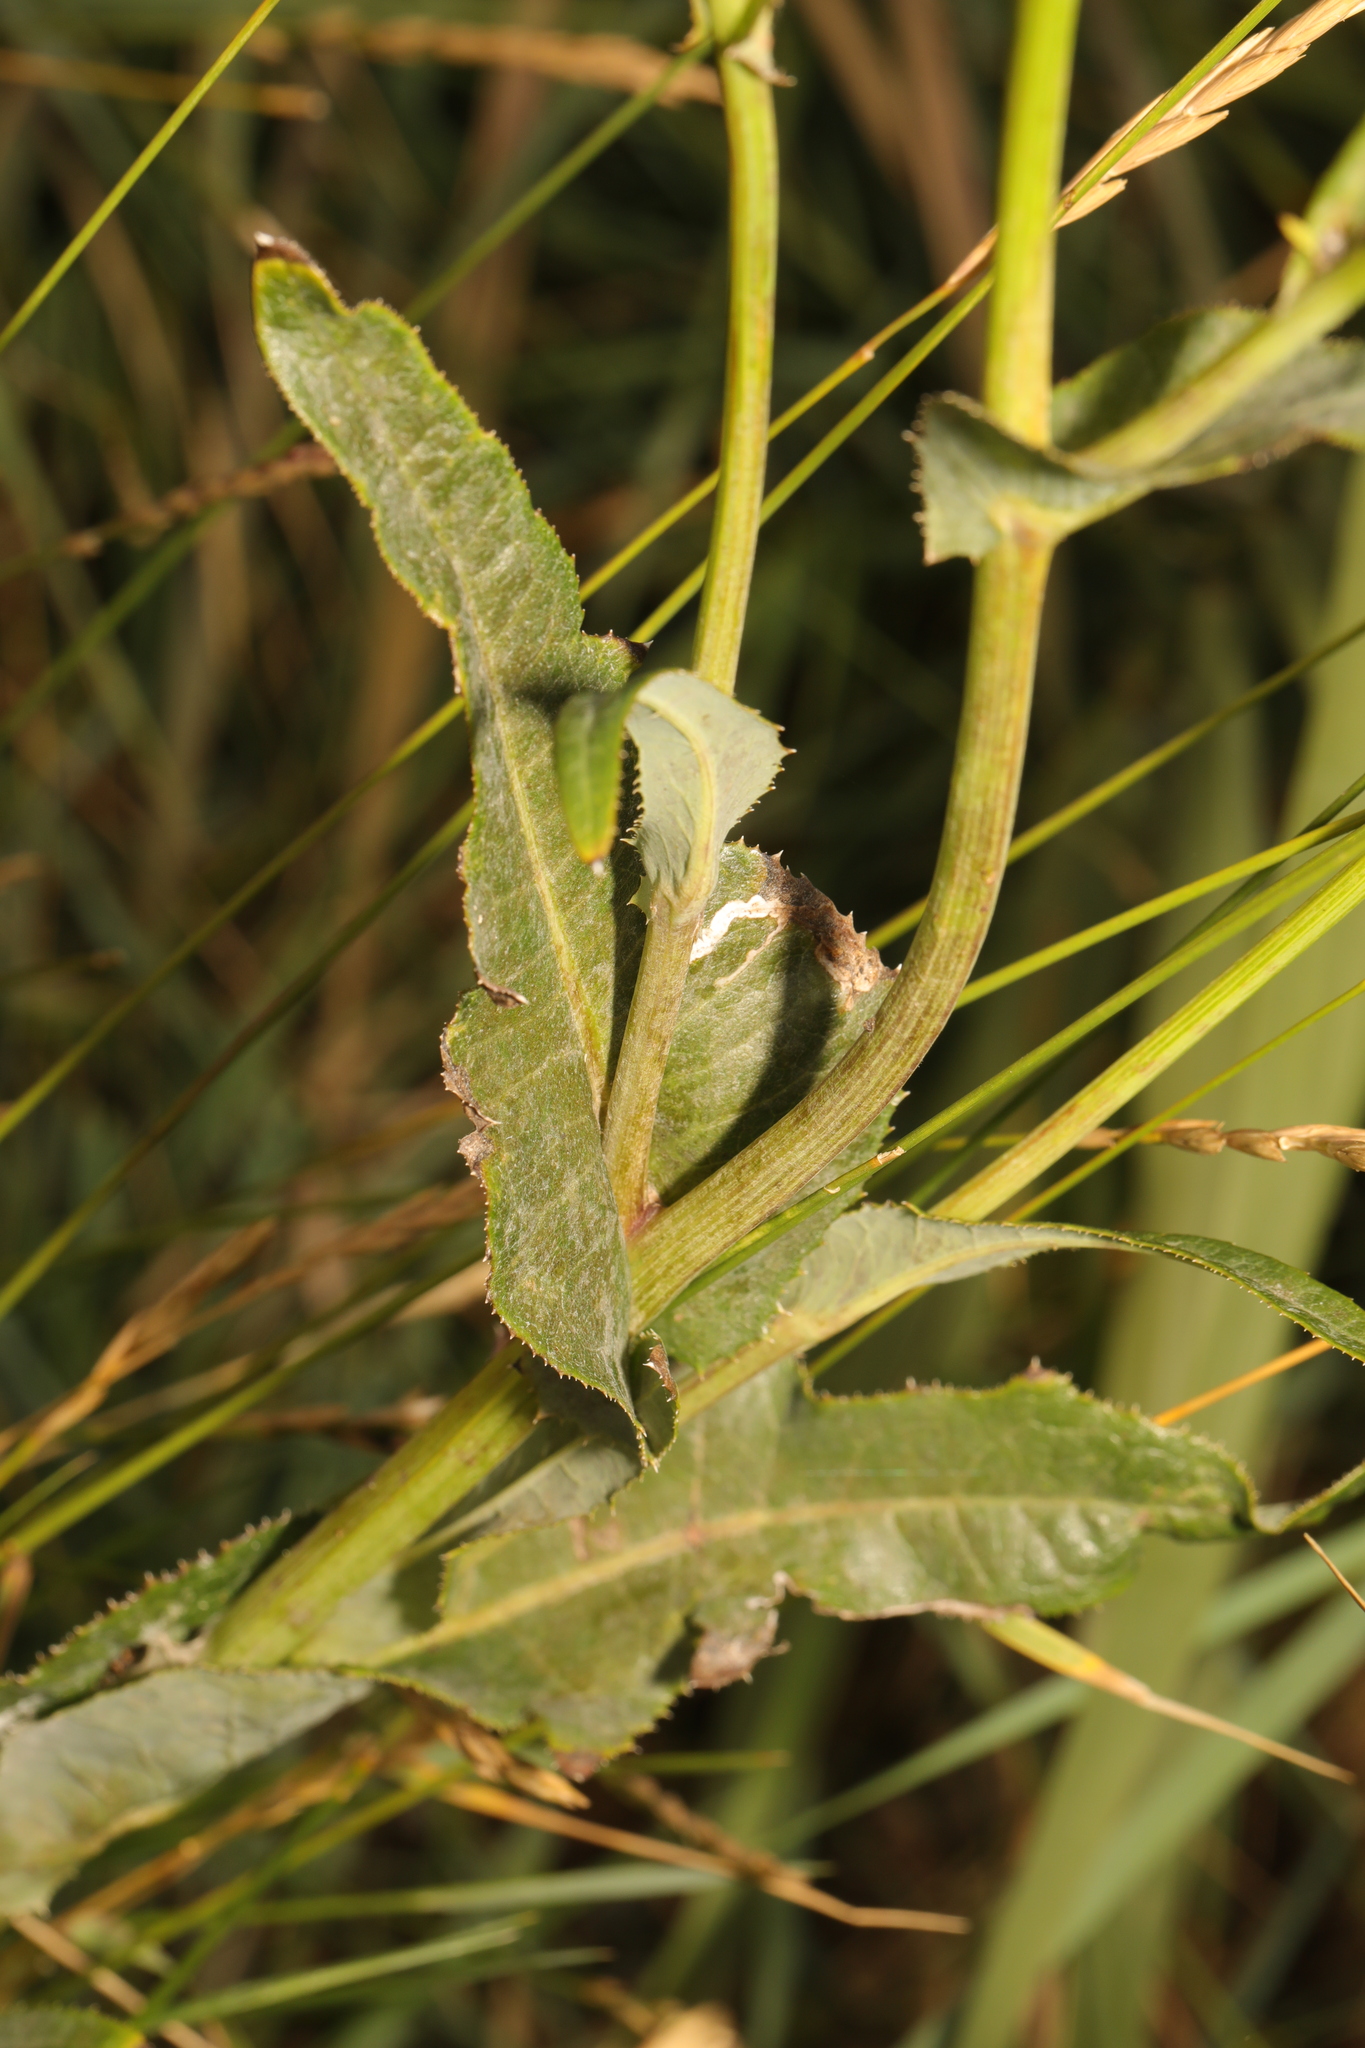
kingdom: Plantae
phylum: Tracheophyta
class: Magnoliopsida
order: Asterales
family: Asteraceae
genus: Sonchus
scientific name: Sonchus arvensis
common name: Perennial sow-thistle
